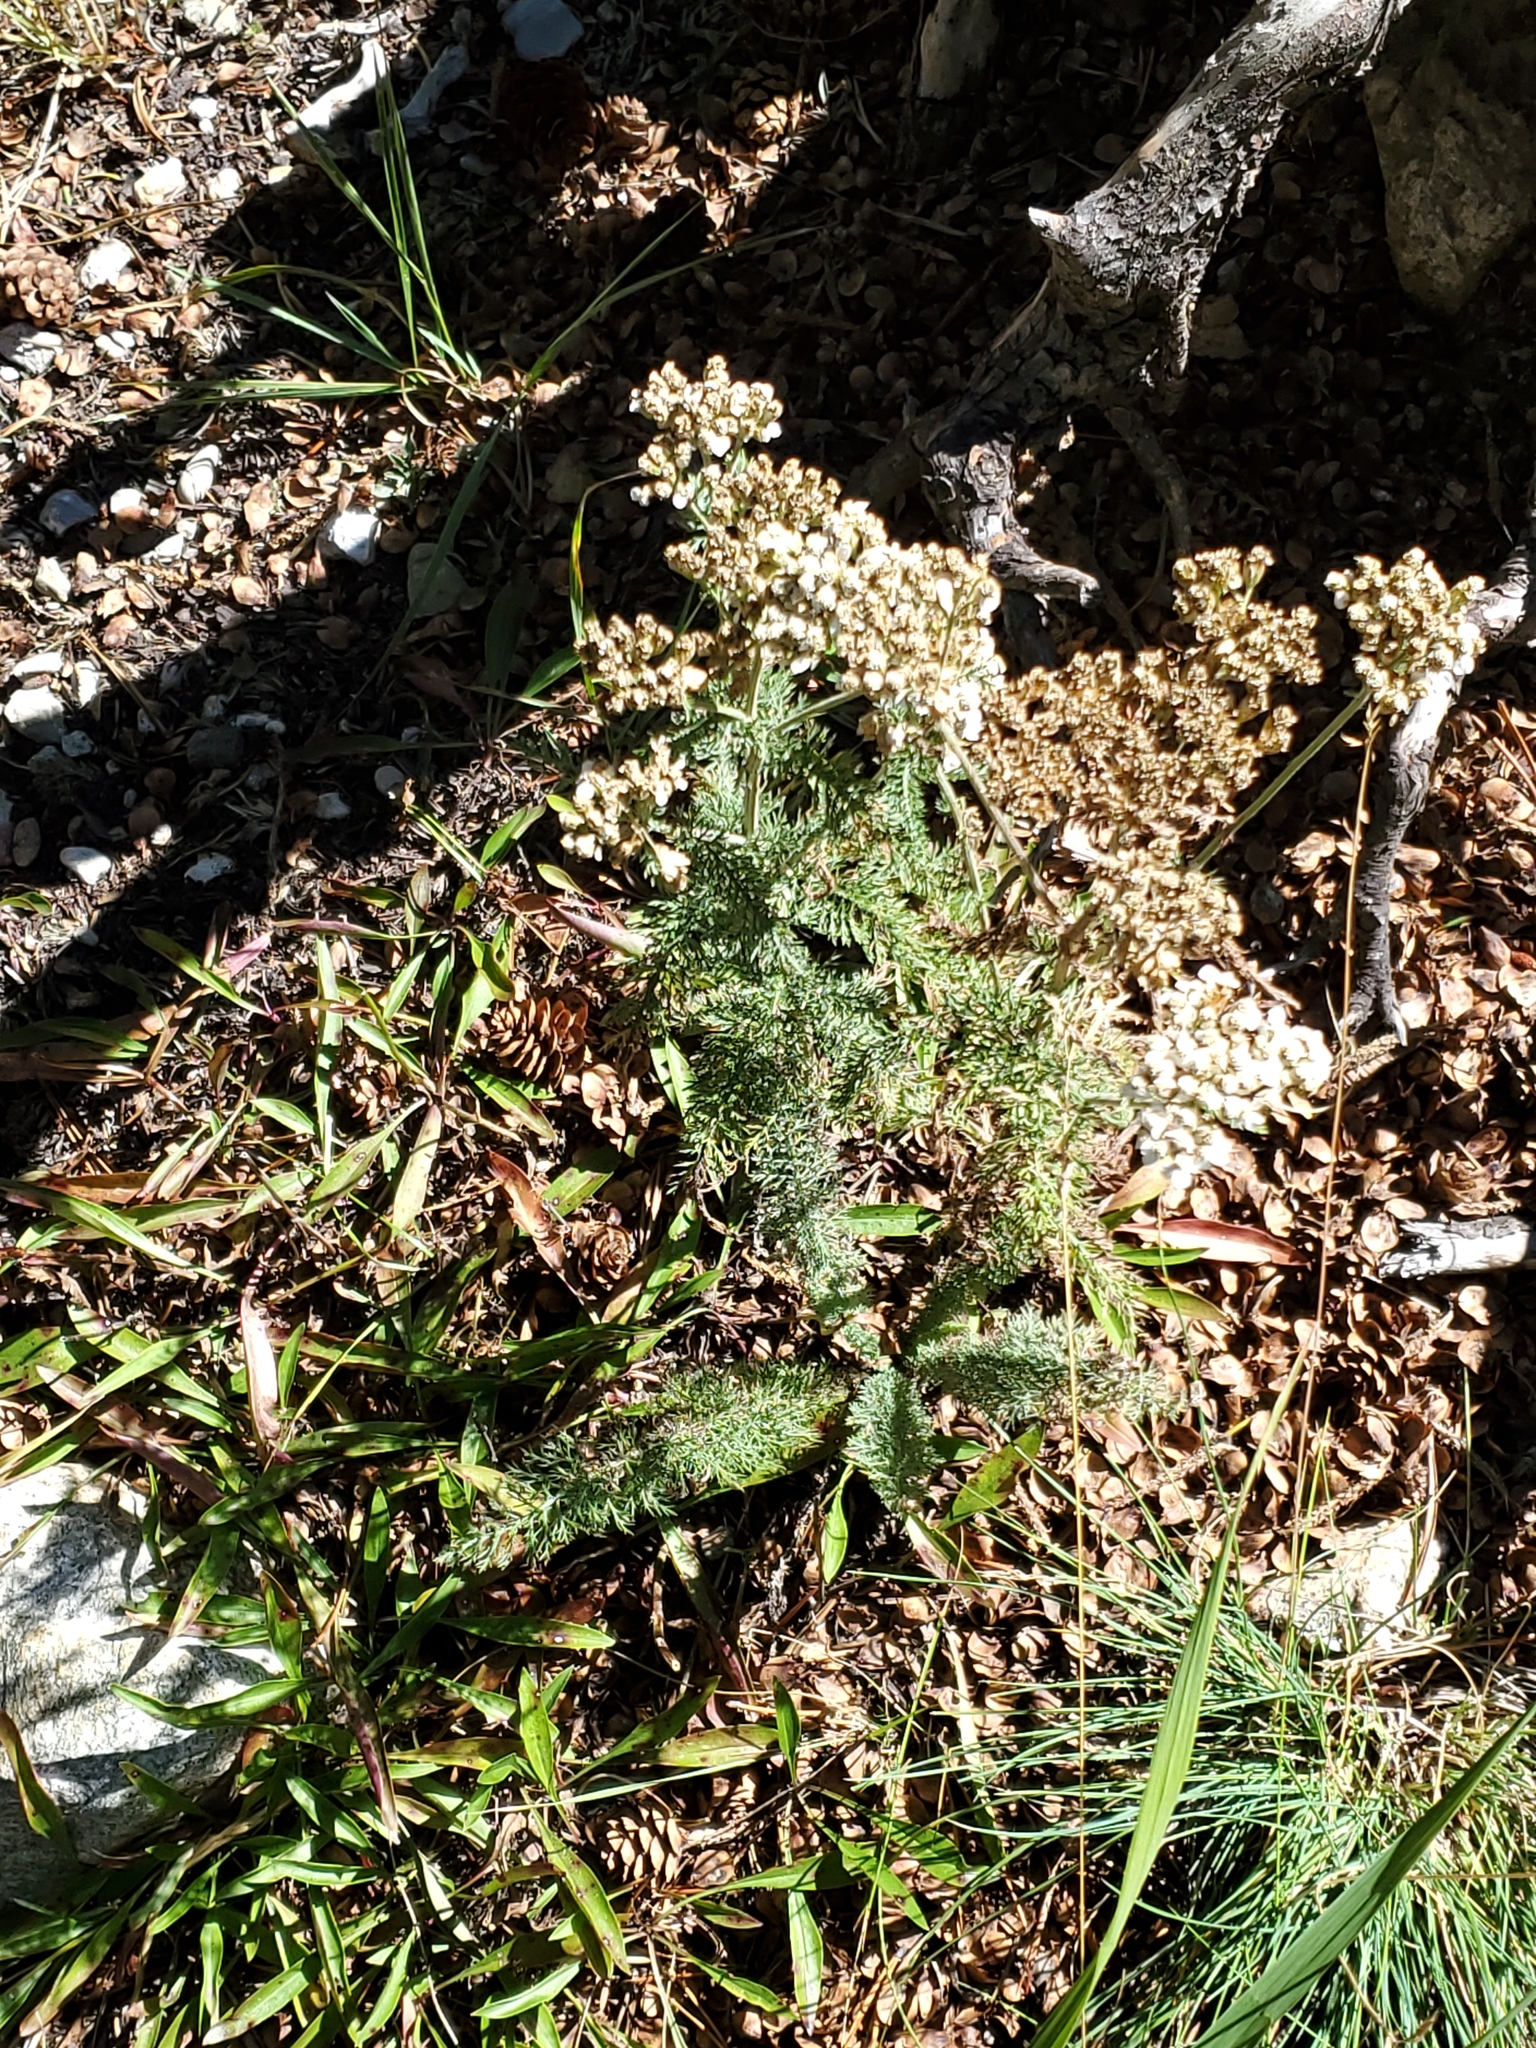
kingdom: Plantae
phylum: Tracheophyta
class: Magnoliopsida
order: Asterales
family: Asteraceae
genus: Achillea
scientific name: Achillea millefolium
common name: Yarrow
